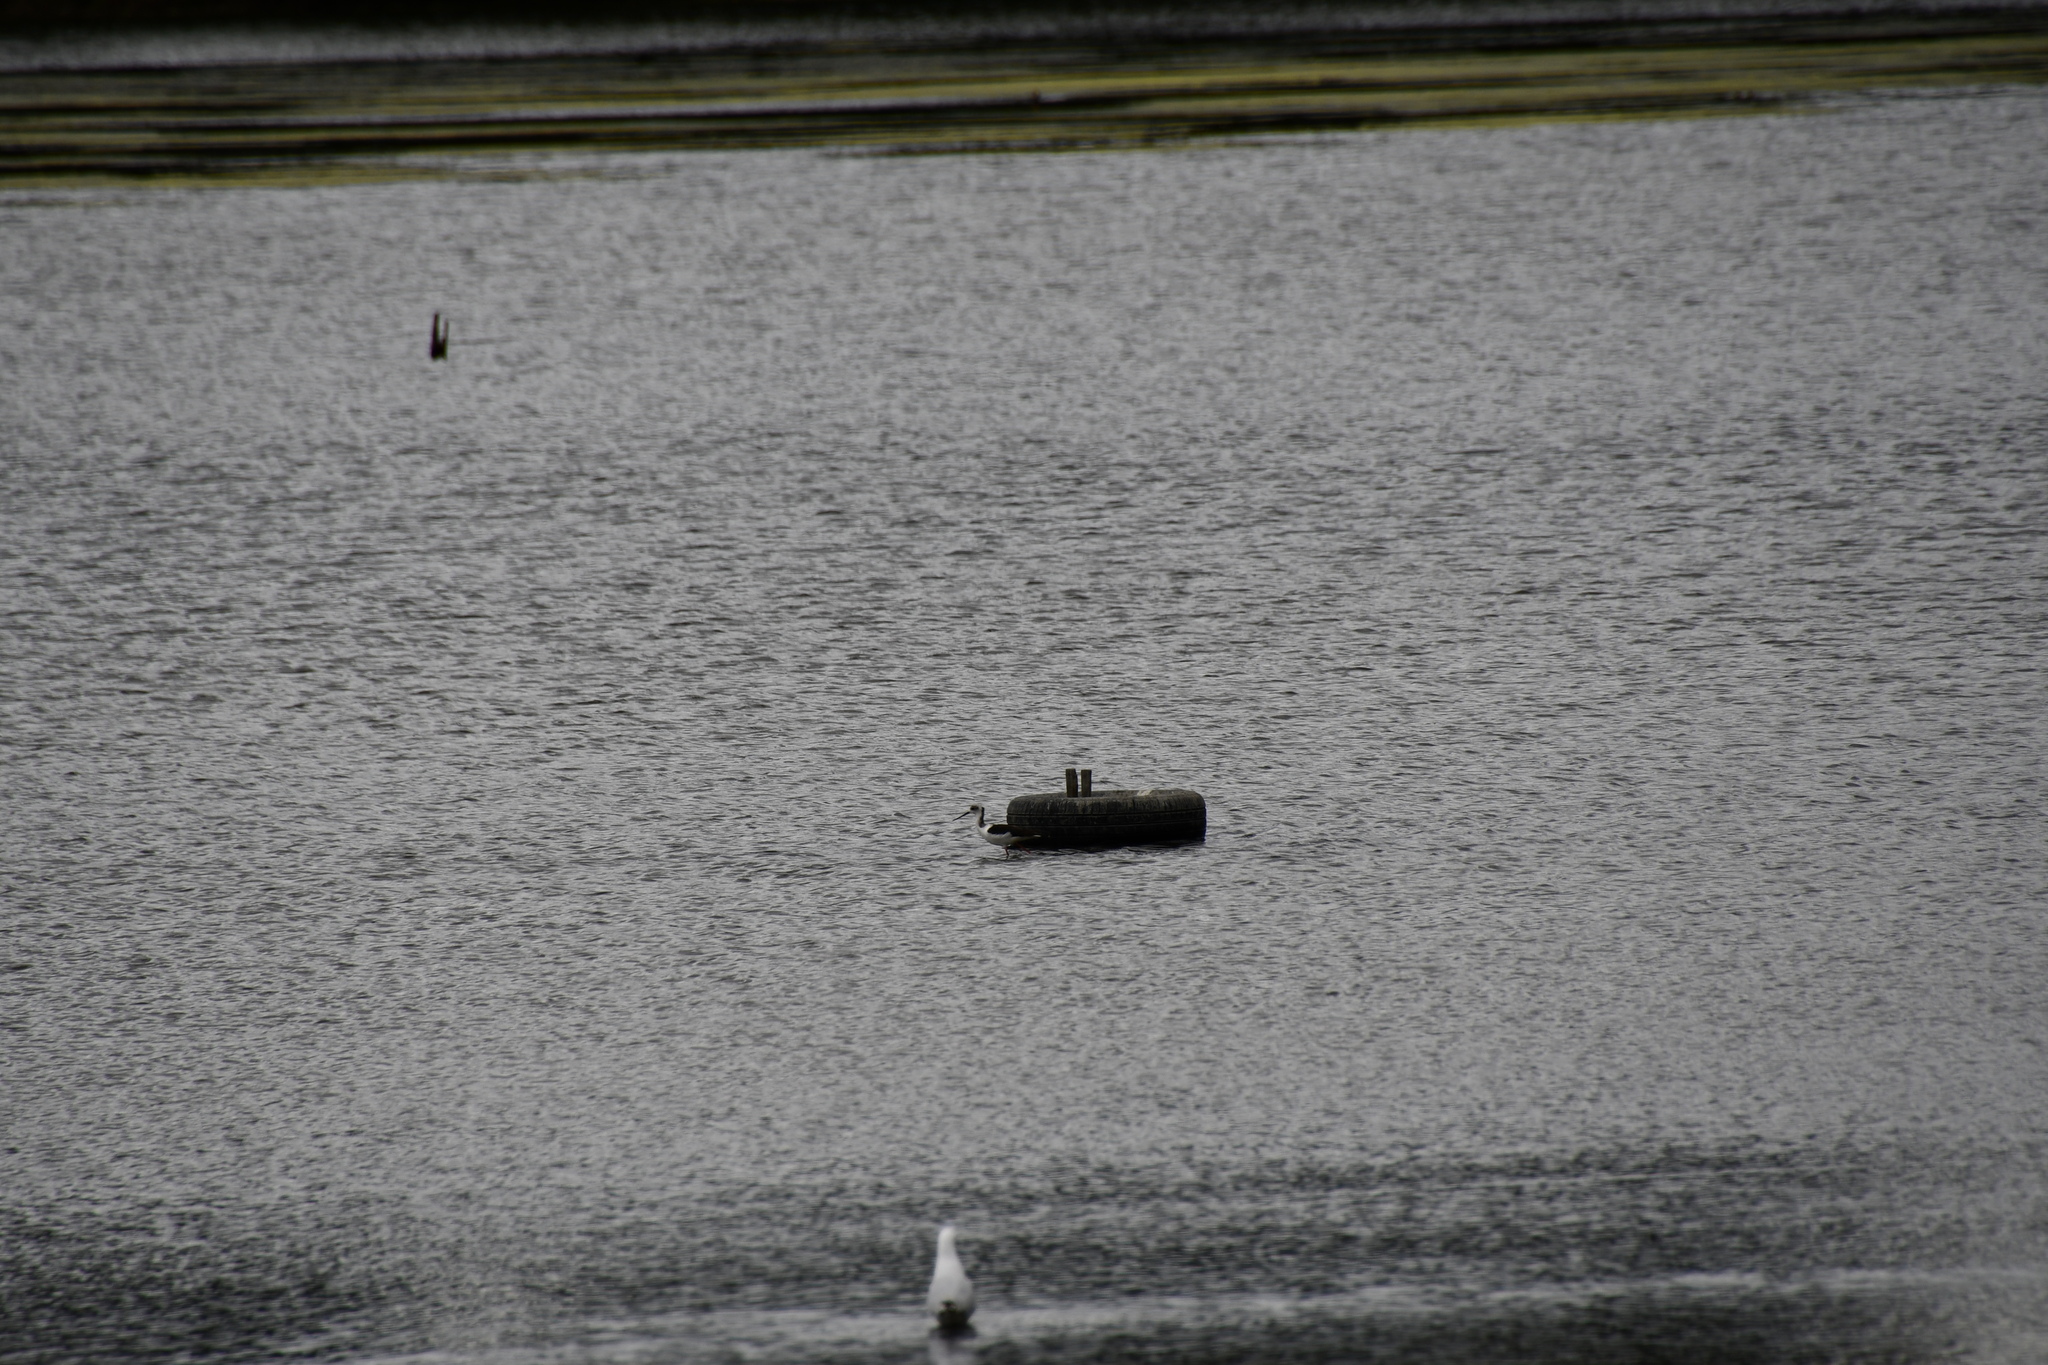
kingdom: Animalia
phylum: Chordata
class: Aves
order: Charadriiformes
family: Recurvirostridae
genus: Himantopus
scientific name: Himantopus leucocephalus
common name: White-headed stilt
